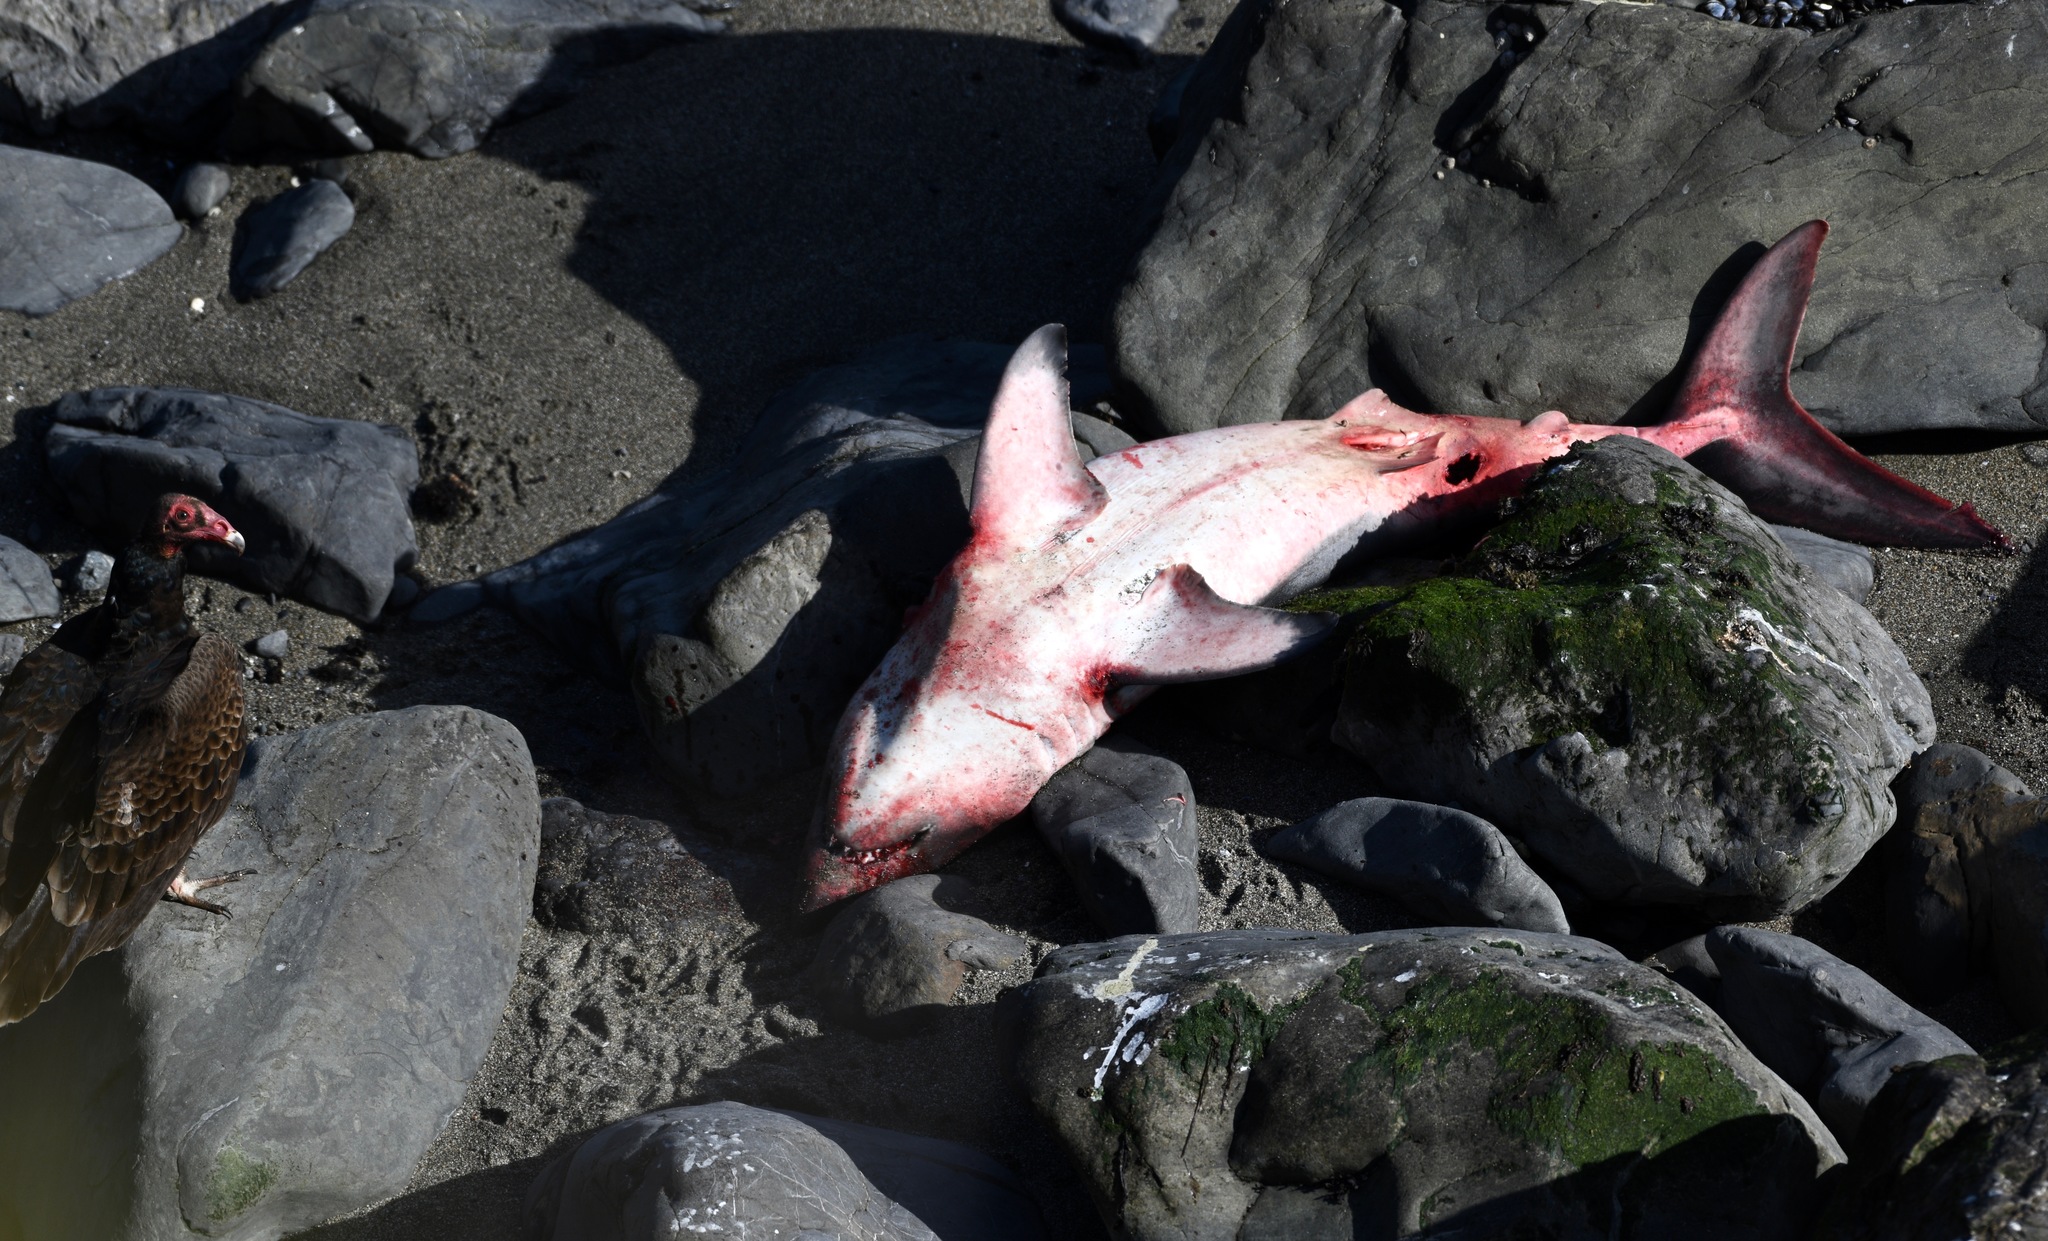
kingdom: Animalia
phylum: Chordata
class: Elasmobranchii
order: Lamniformes
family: Lamnidae
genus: Lamna
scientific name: Lamna ditropis
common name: Salmon shark
